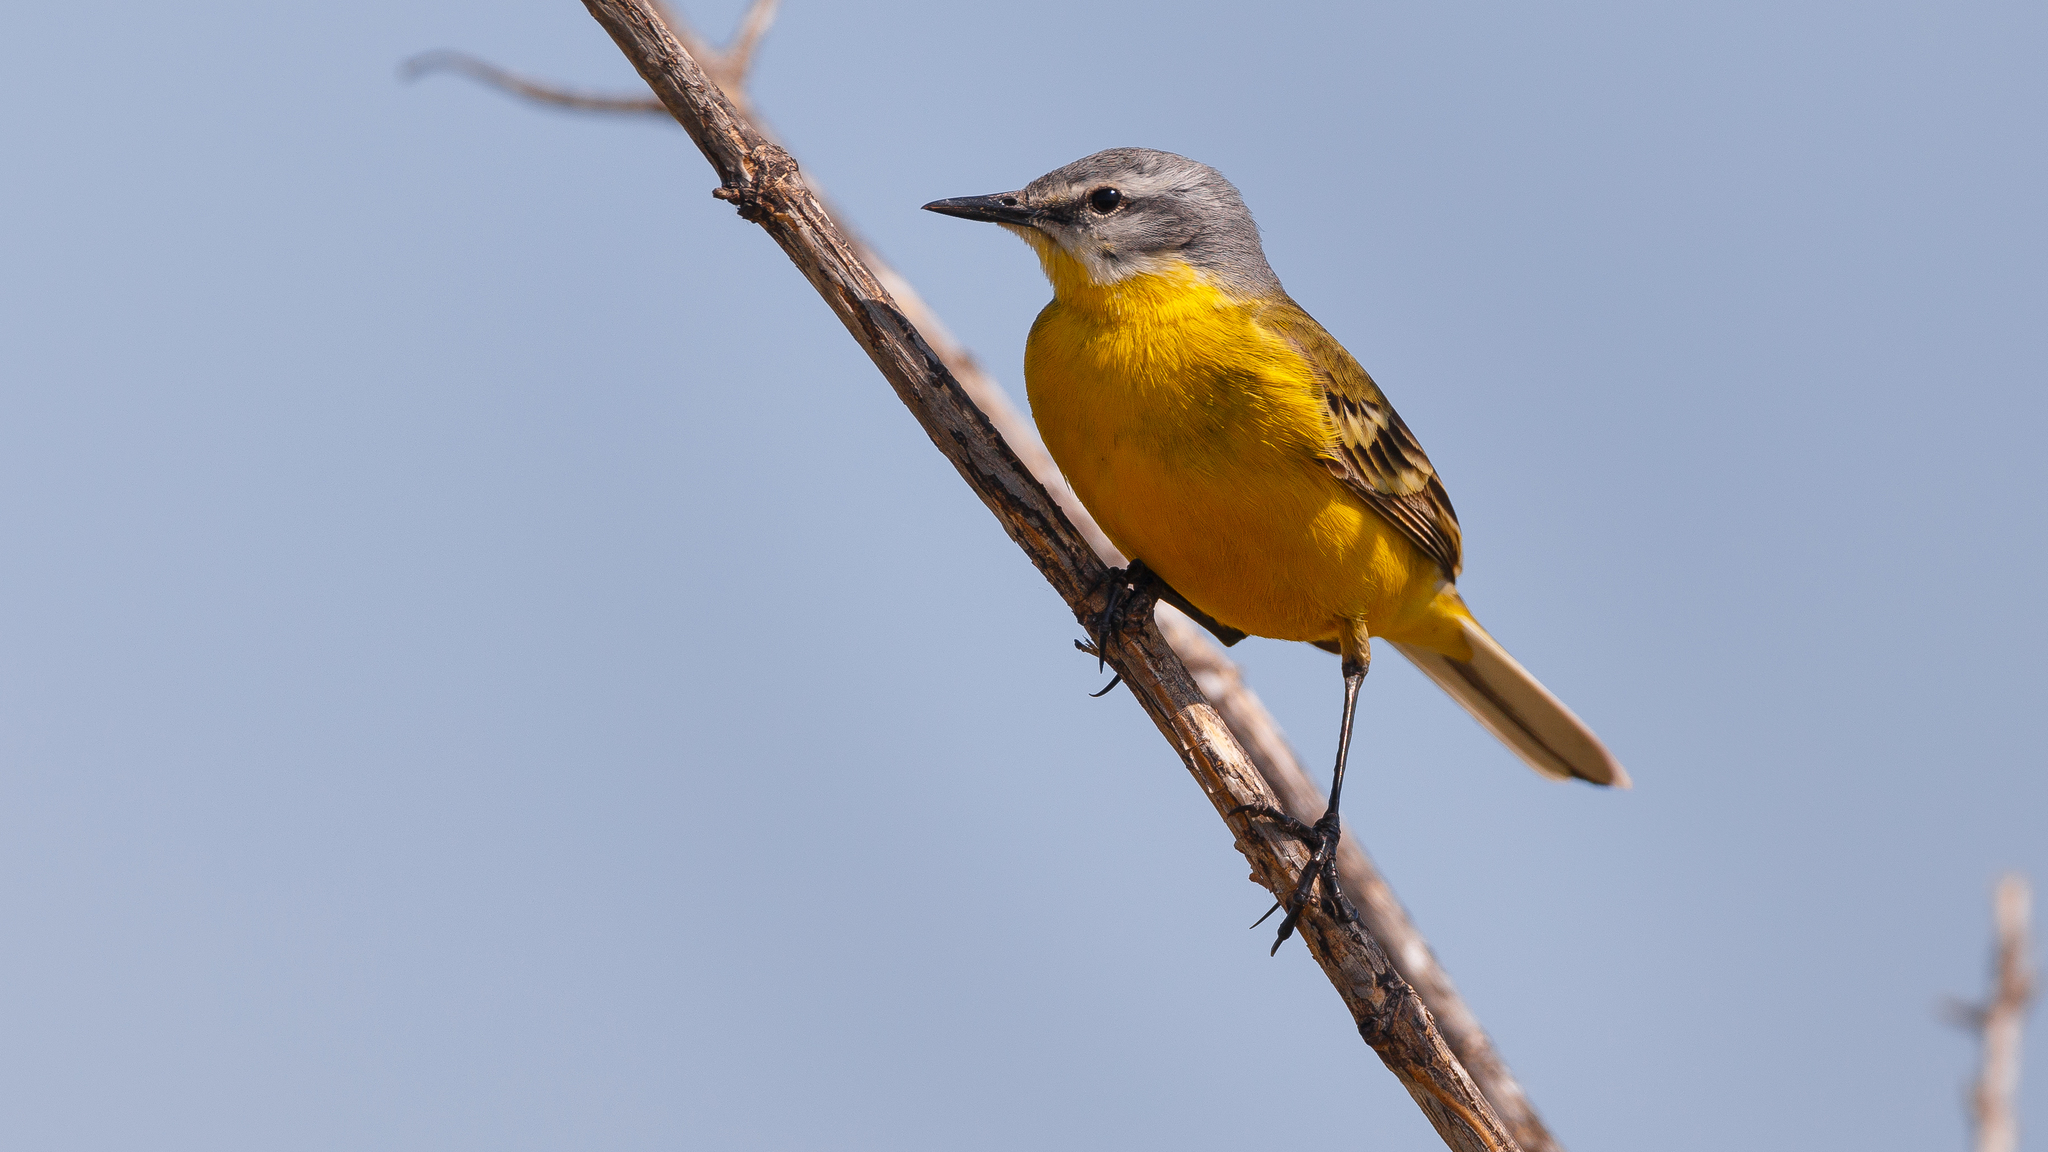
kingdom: Animalia
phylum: Chordata
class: Aves
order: Passeriformes
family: Motacillidae
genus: Motacilla
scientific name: Motacilla flava
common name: Western yellow wagtail
